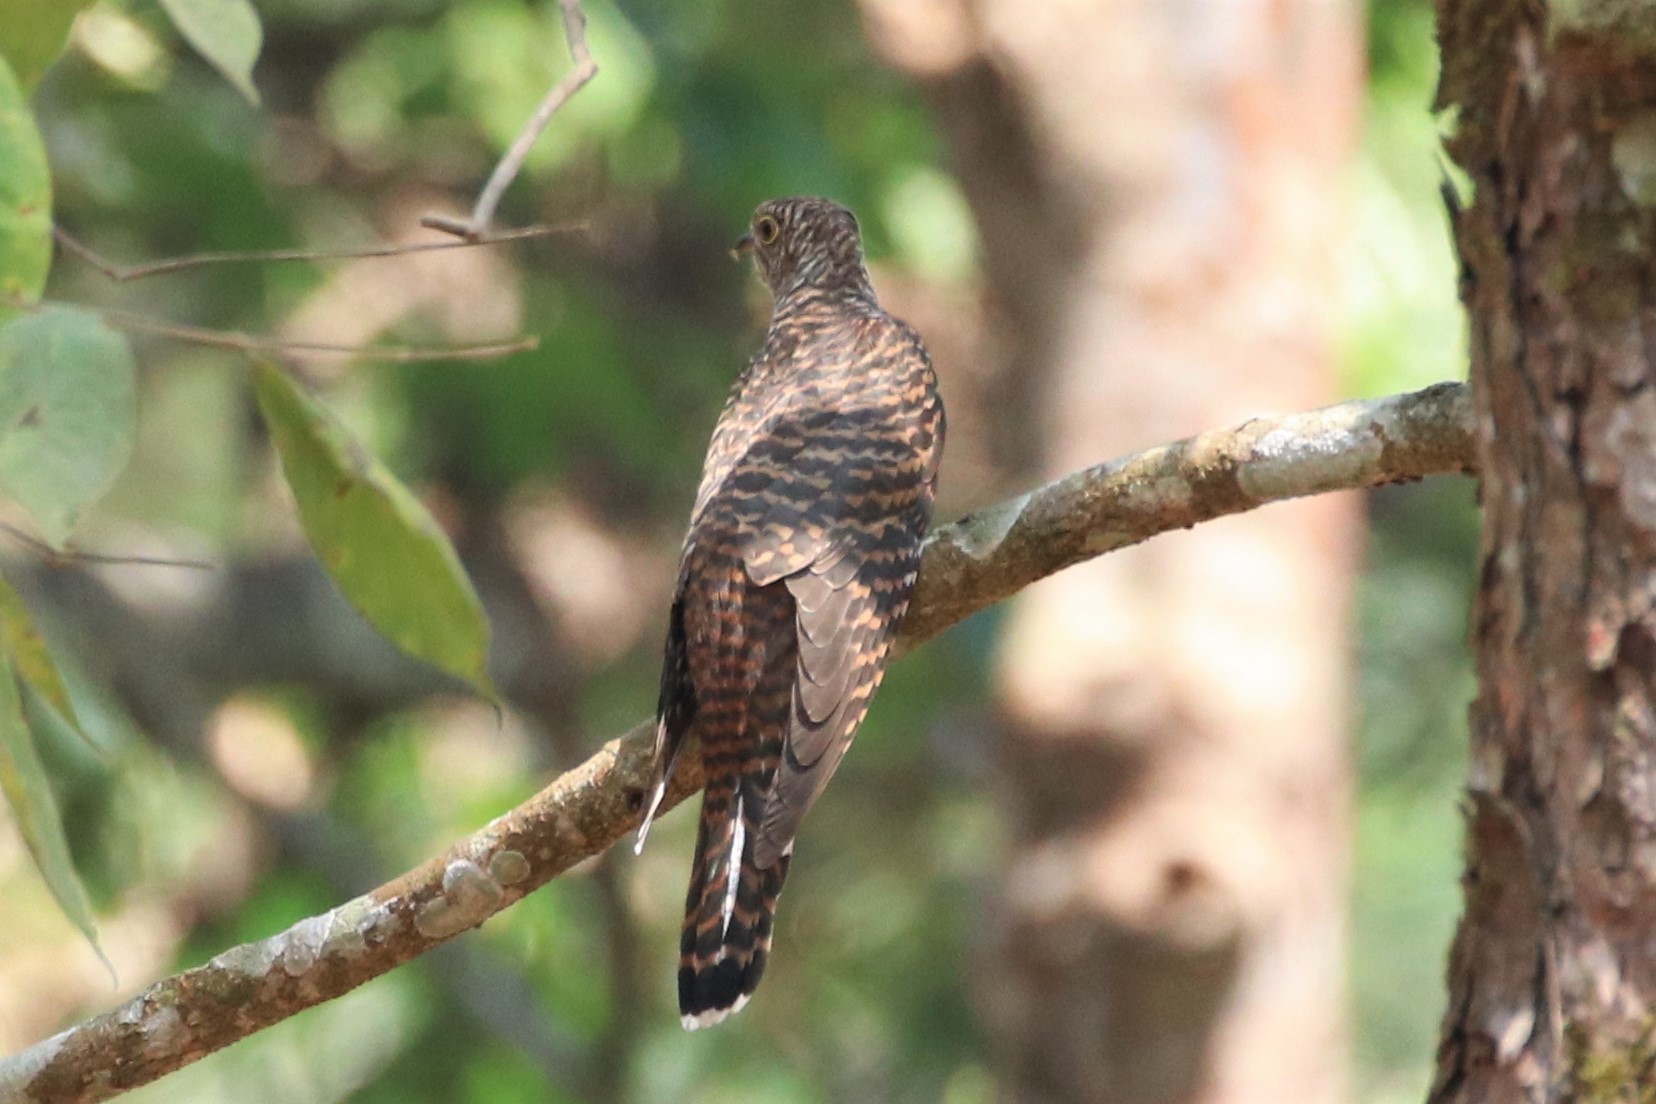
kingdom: Animalia
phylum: Chordata
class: Aves
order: Cuculiformes
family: Cuculidae
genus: Cacomantis
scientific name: Cacomantis sonneratii
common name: Banded bay cuckoo
